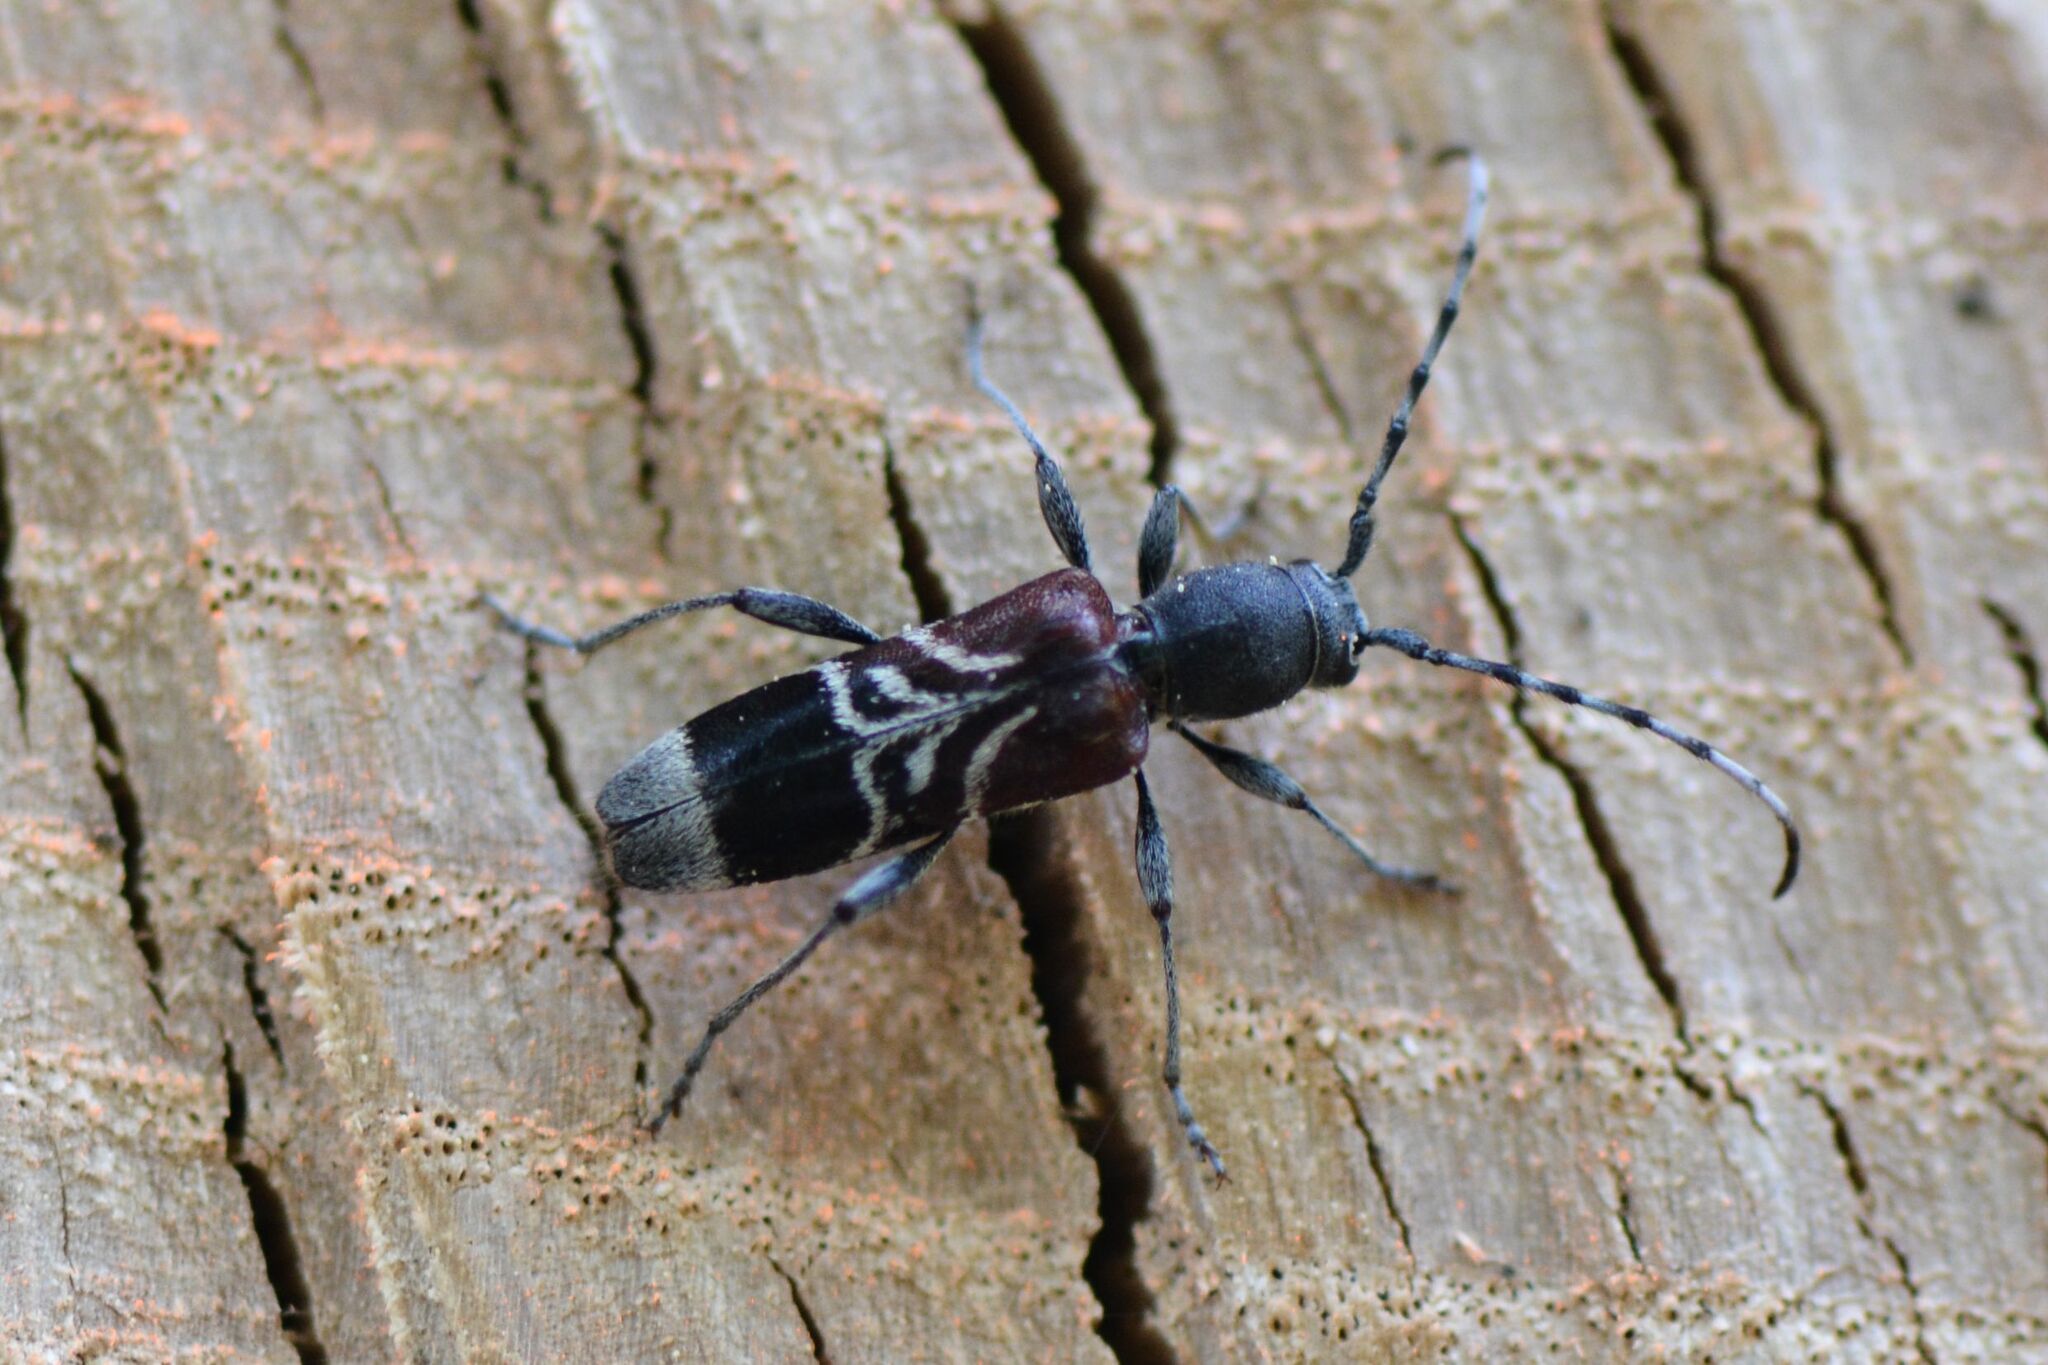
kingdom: Animalia
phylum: Arthropoda
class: Insecta
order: Coleoptera
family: Cerambycidae
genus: Anaglyptus
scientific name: Anaglyptus mysticus
